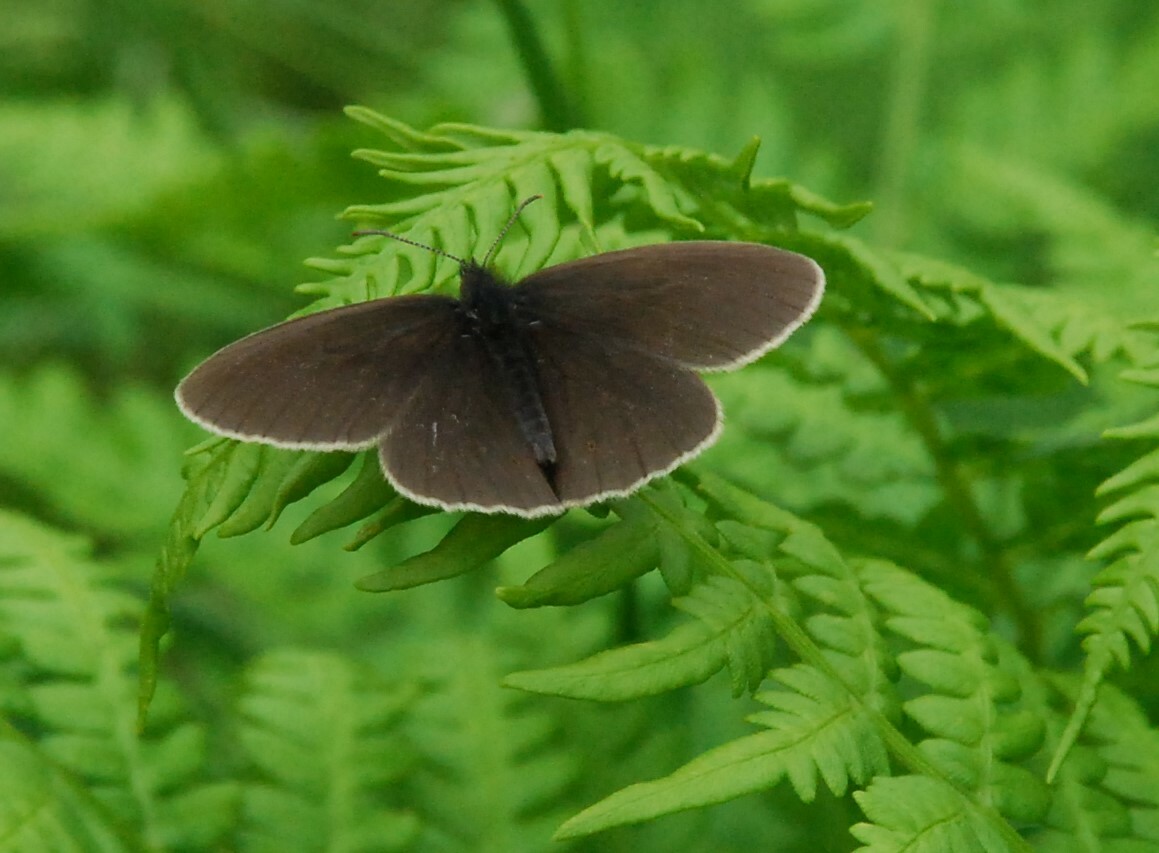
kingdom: Animalia
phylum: Arthropoda
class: Insecta
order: Lepidoptera
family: Nymphalidae
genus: Aphantopus
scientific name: Aphantopus hyperantus
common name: Ringlet
